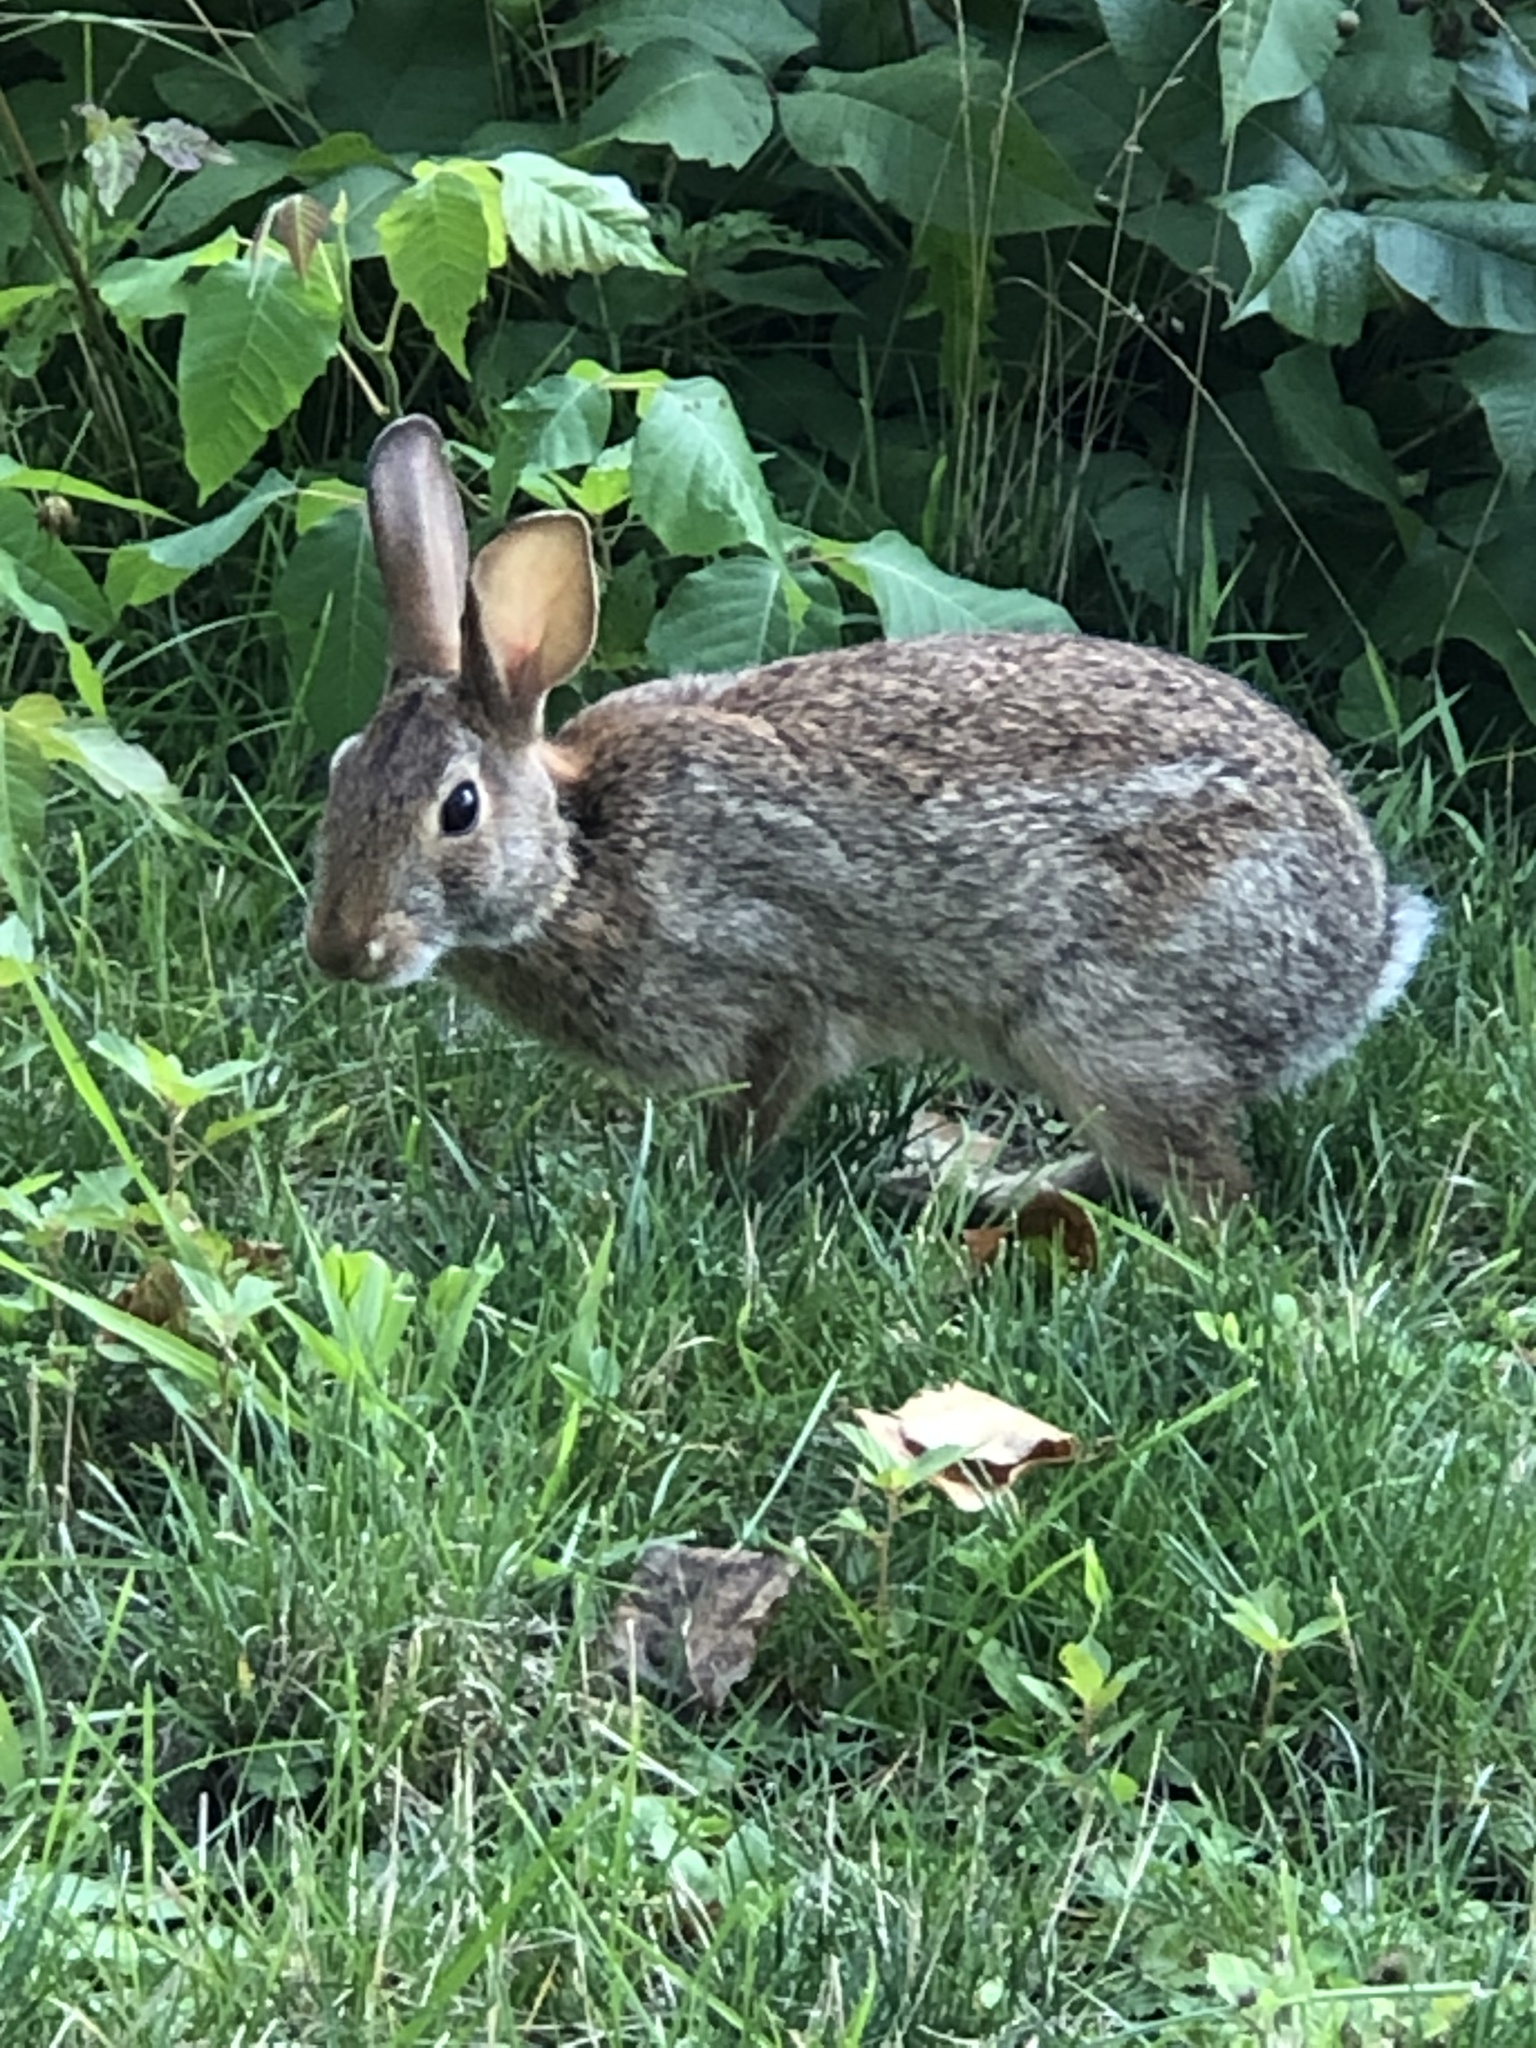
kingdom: Animalia
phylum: Chordata
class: Mammalia
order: Lagomorpha
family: Leporidae
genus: Sylvilagus
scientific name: Sylvilagus floridanus
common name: Eastern cottontail
